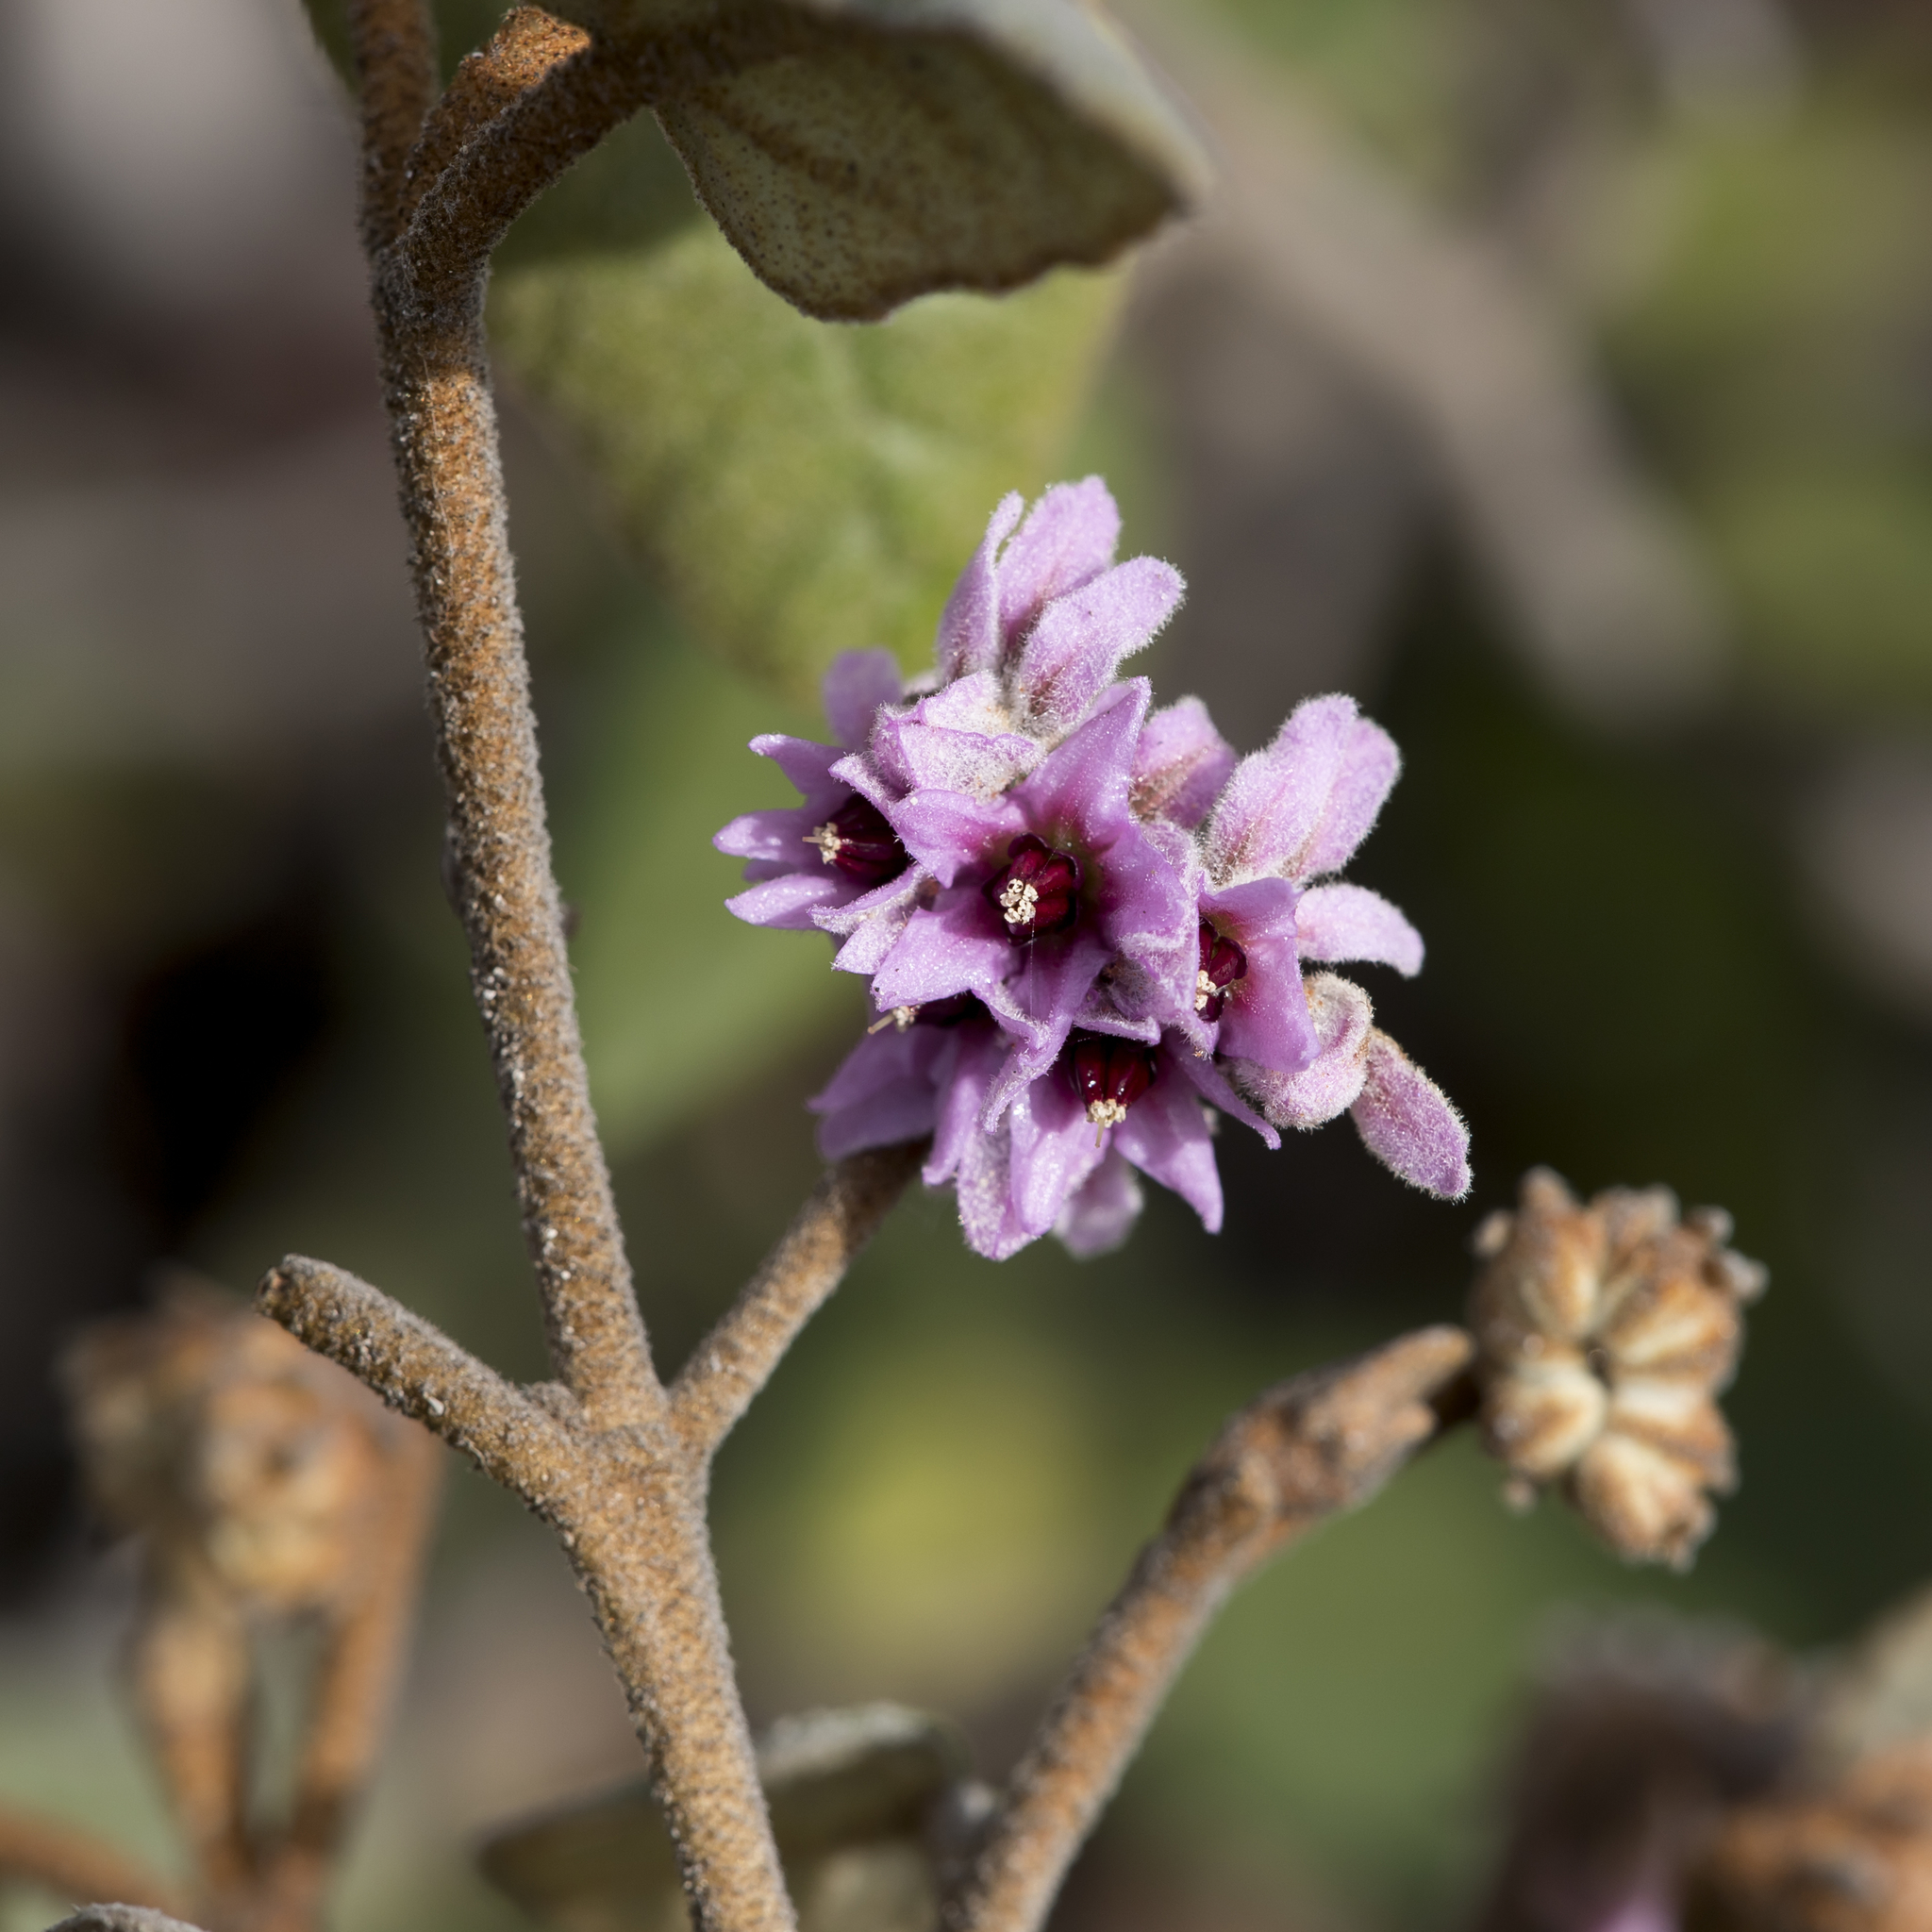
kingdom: Plantae
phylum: Tracheophyta
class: Magnoliopsida
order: Malvales
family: Malvaceae
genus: Lasiopetalum
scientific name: Lasiopetalum discolor
